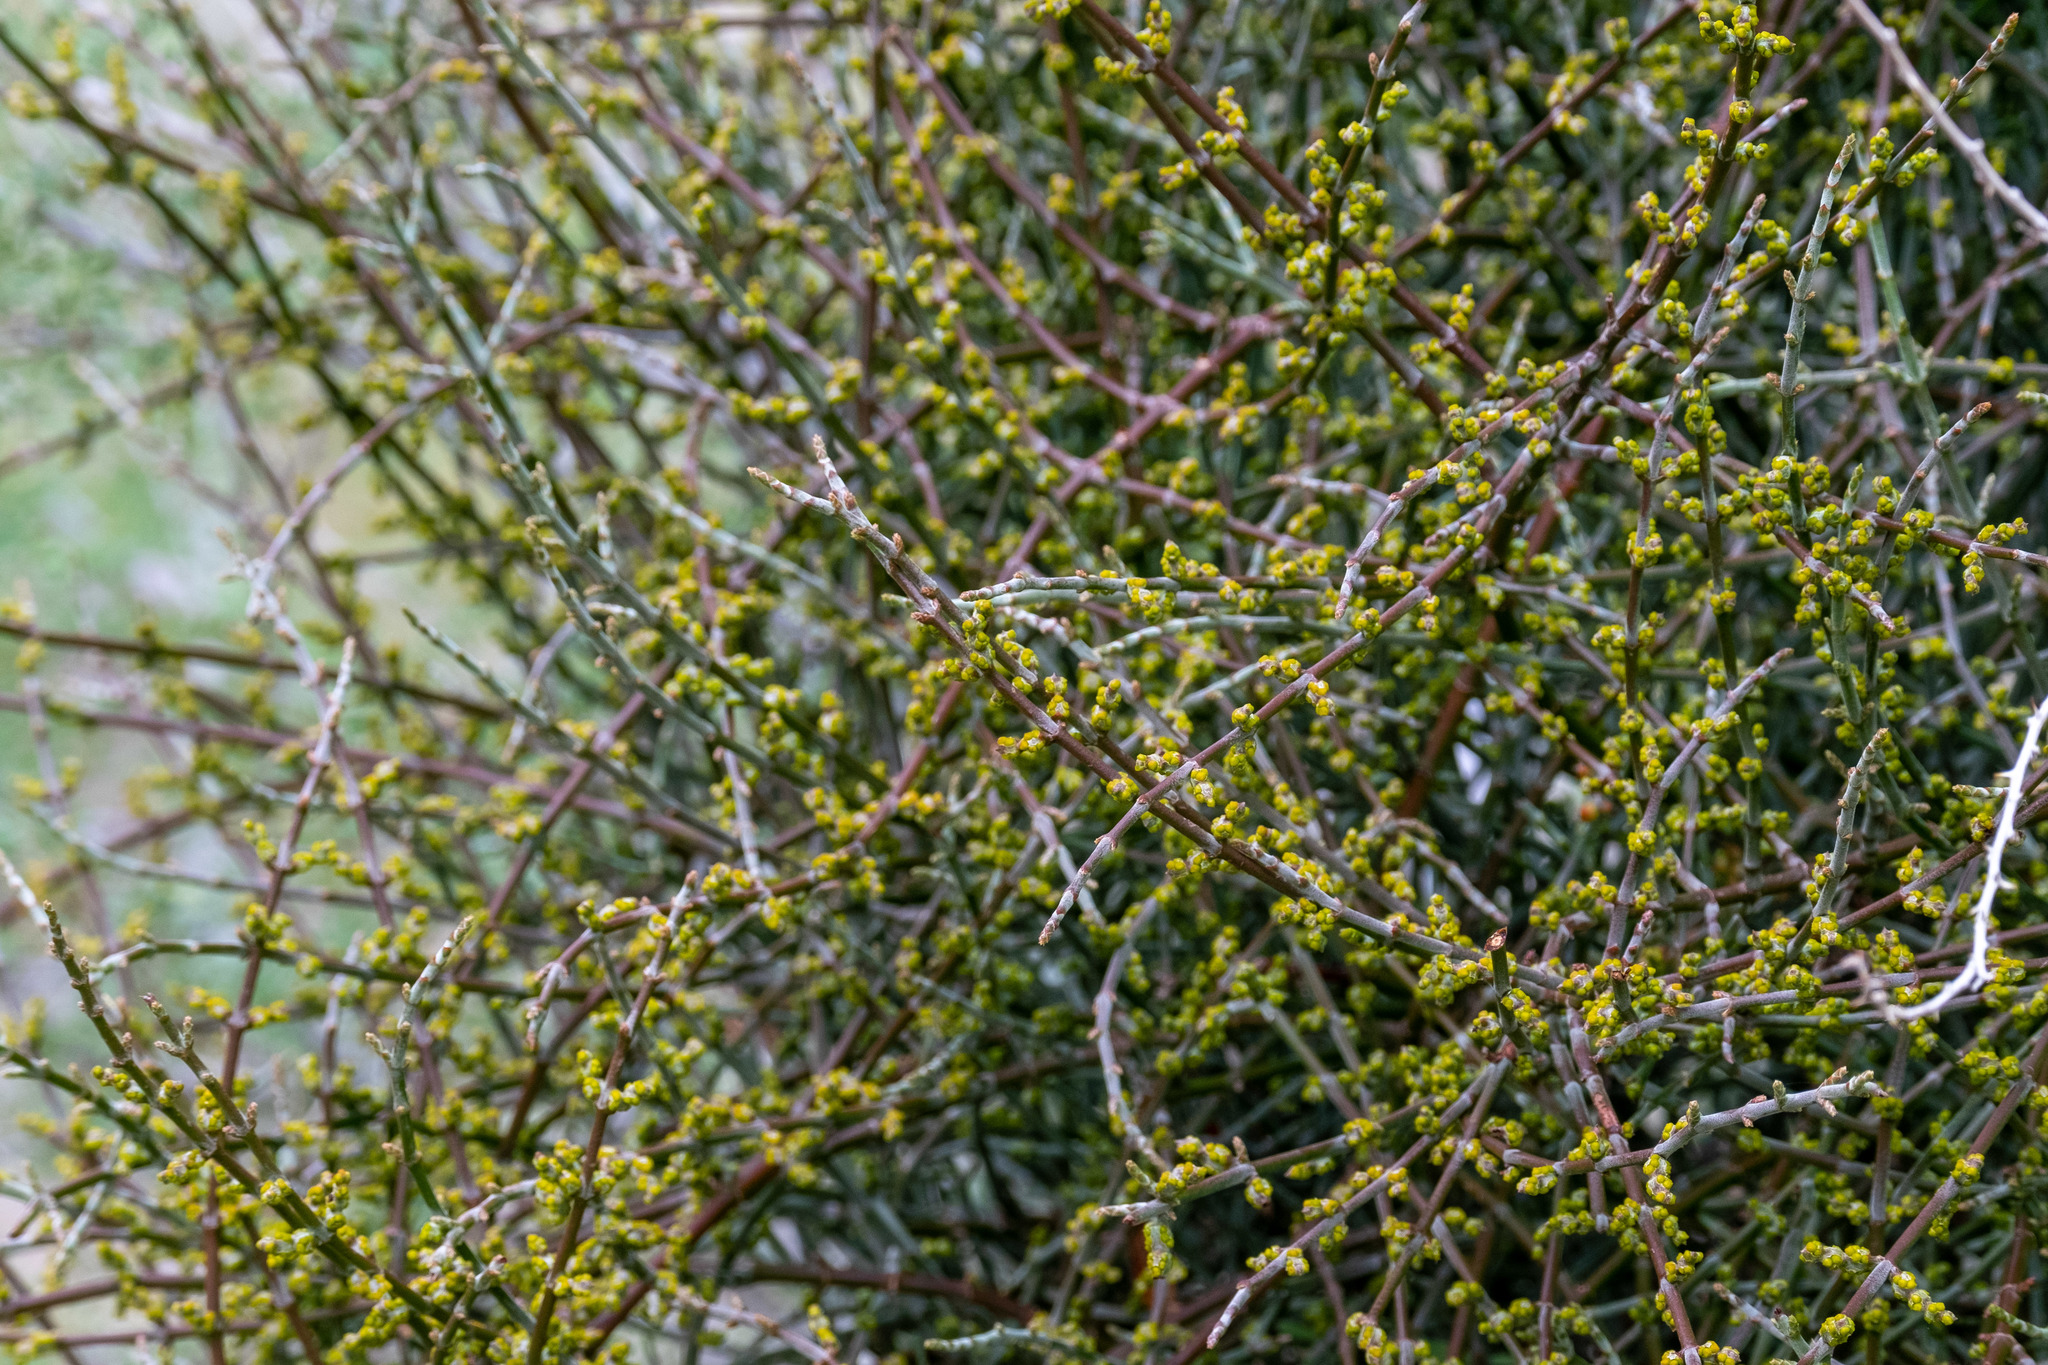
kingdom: Plantae
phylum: Tracheophyta
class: Magnoliopsida
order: Santalales
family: Viscaceae
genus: Phoradendron
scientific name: Phoradendron californicum
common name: Acacia mistletoe
